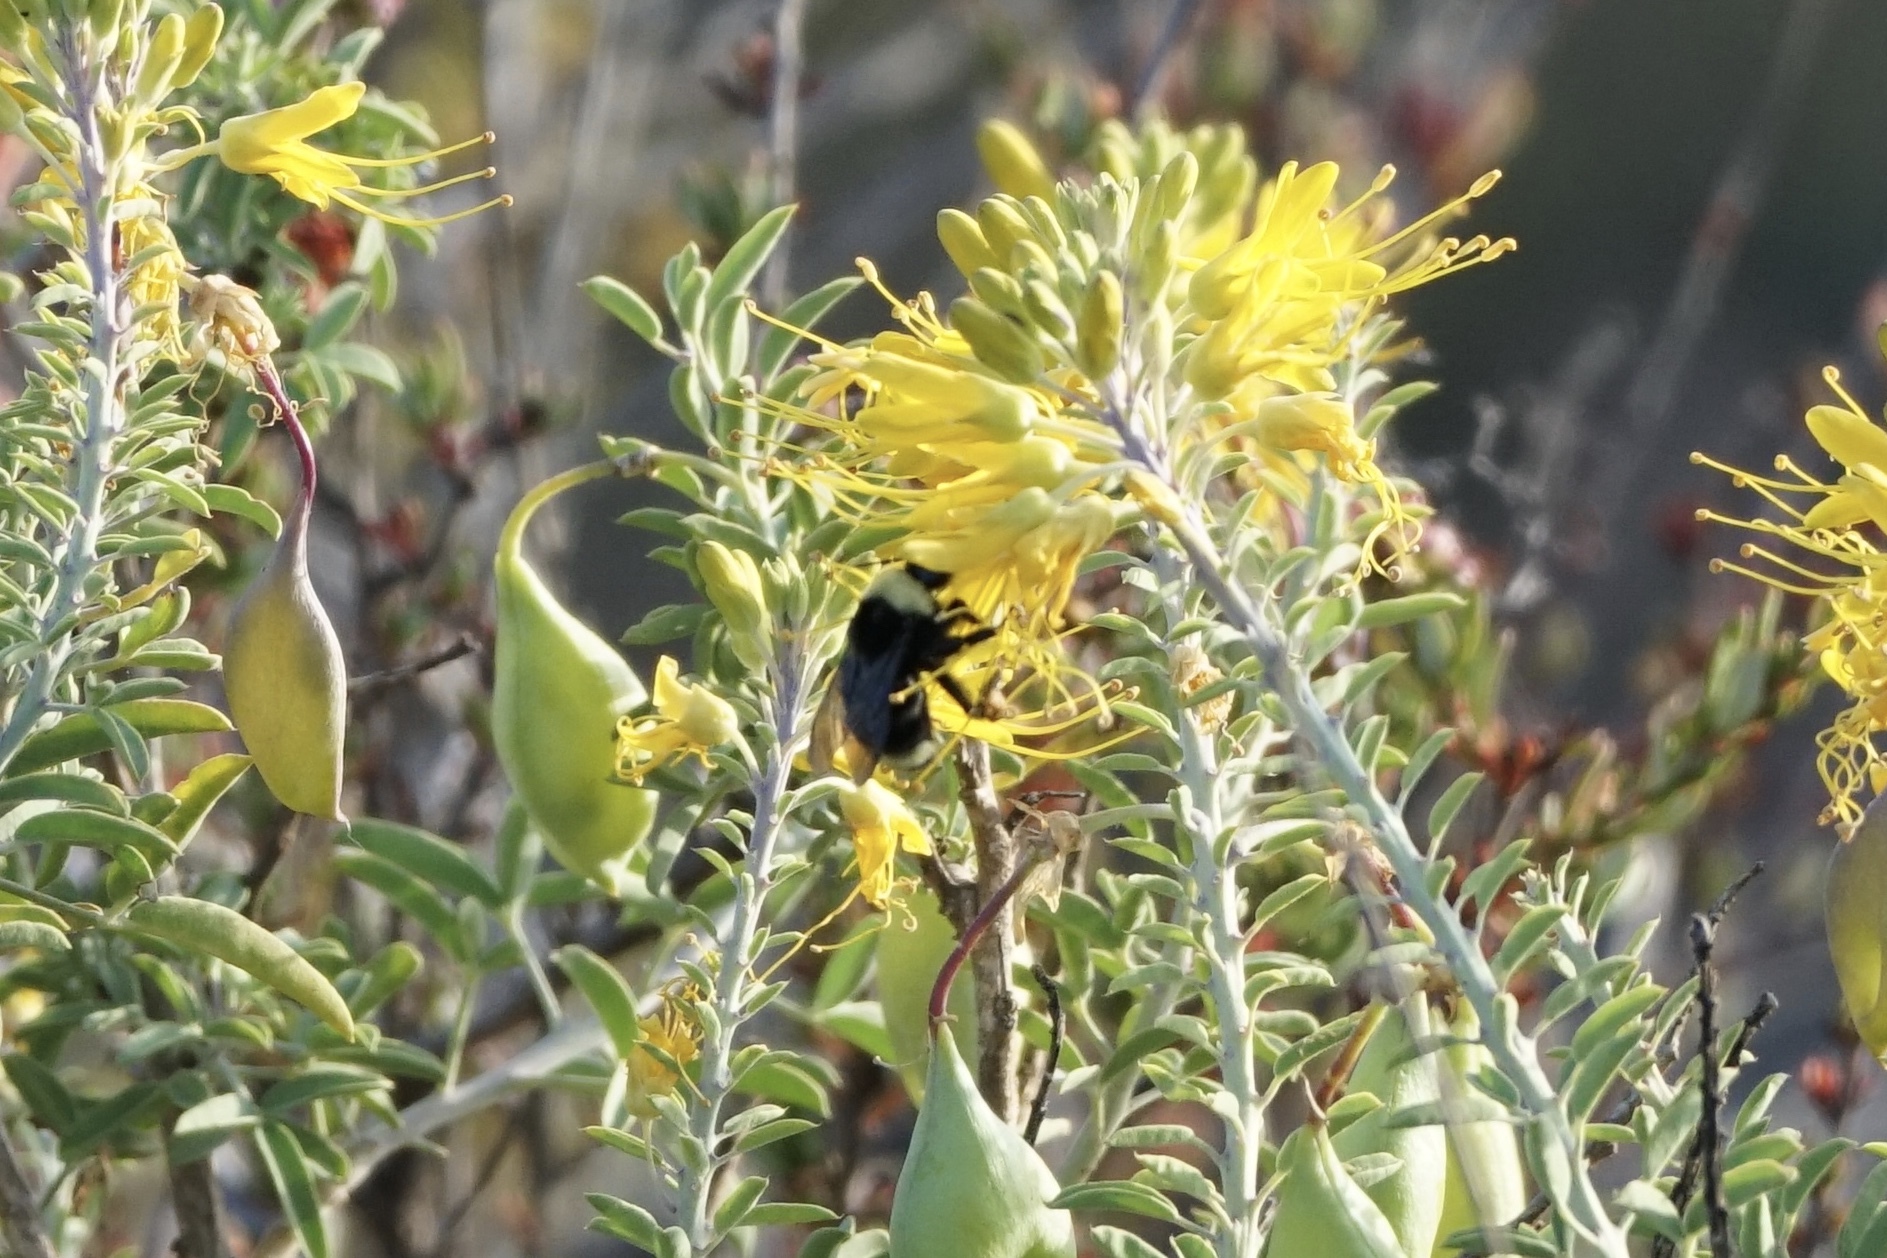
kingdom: Animalia
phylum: Arthropoda
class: Insecta
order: Hymenoptera
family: Apidae
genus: Bombus
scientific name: Bombus californicus
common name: California bumble bee
